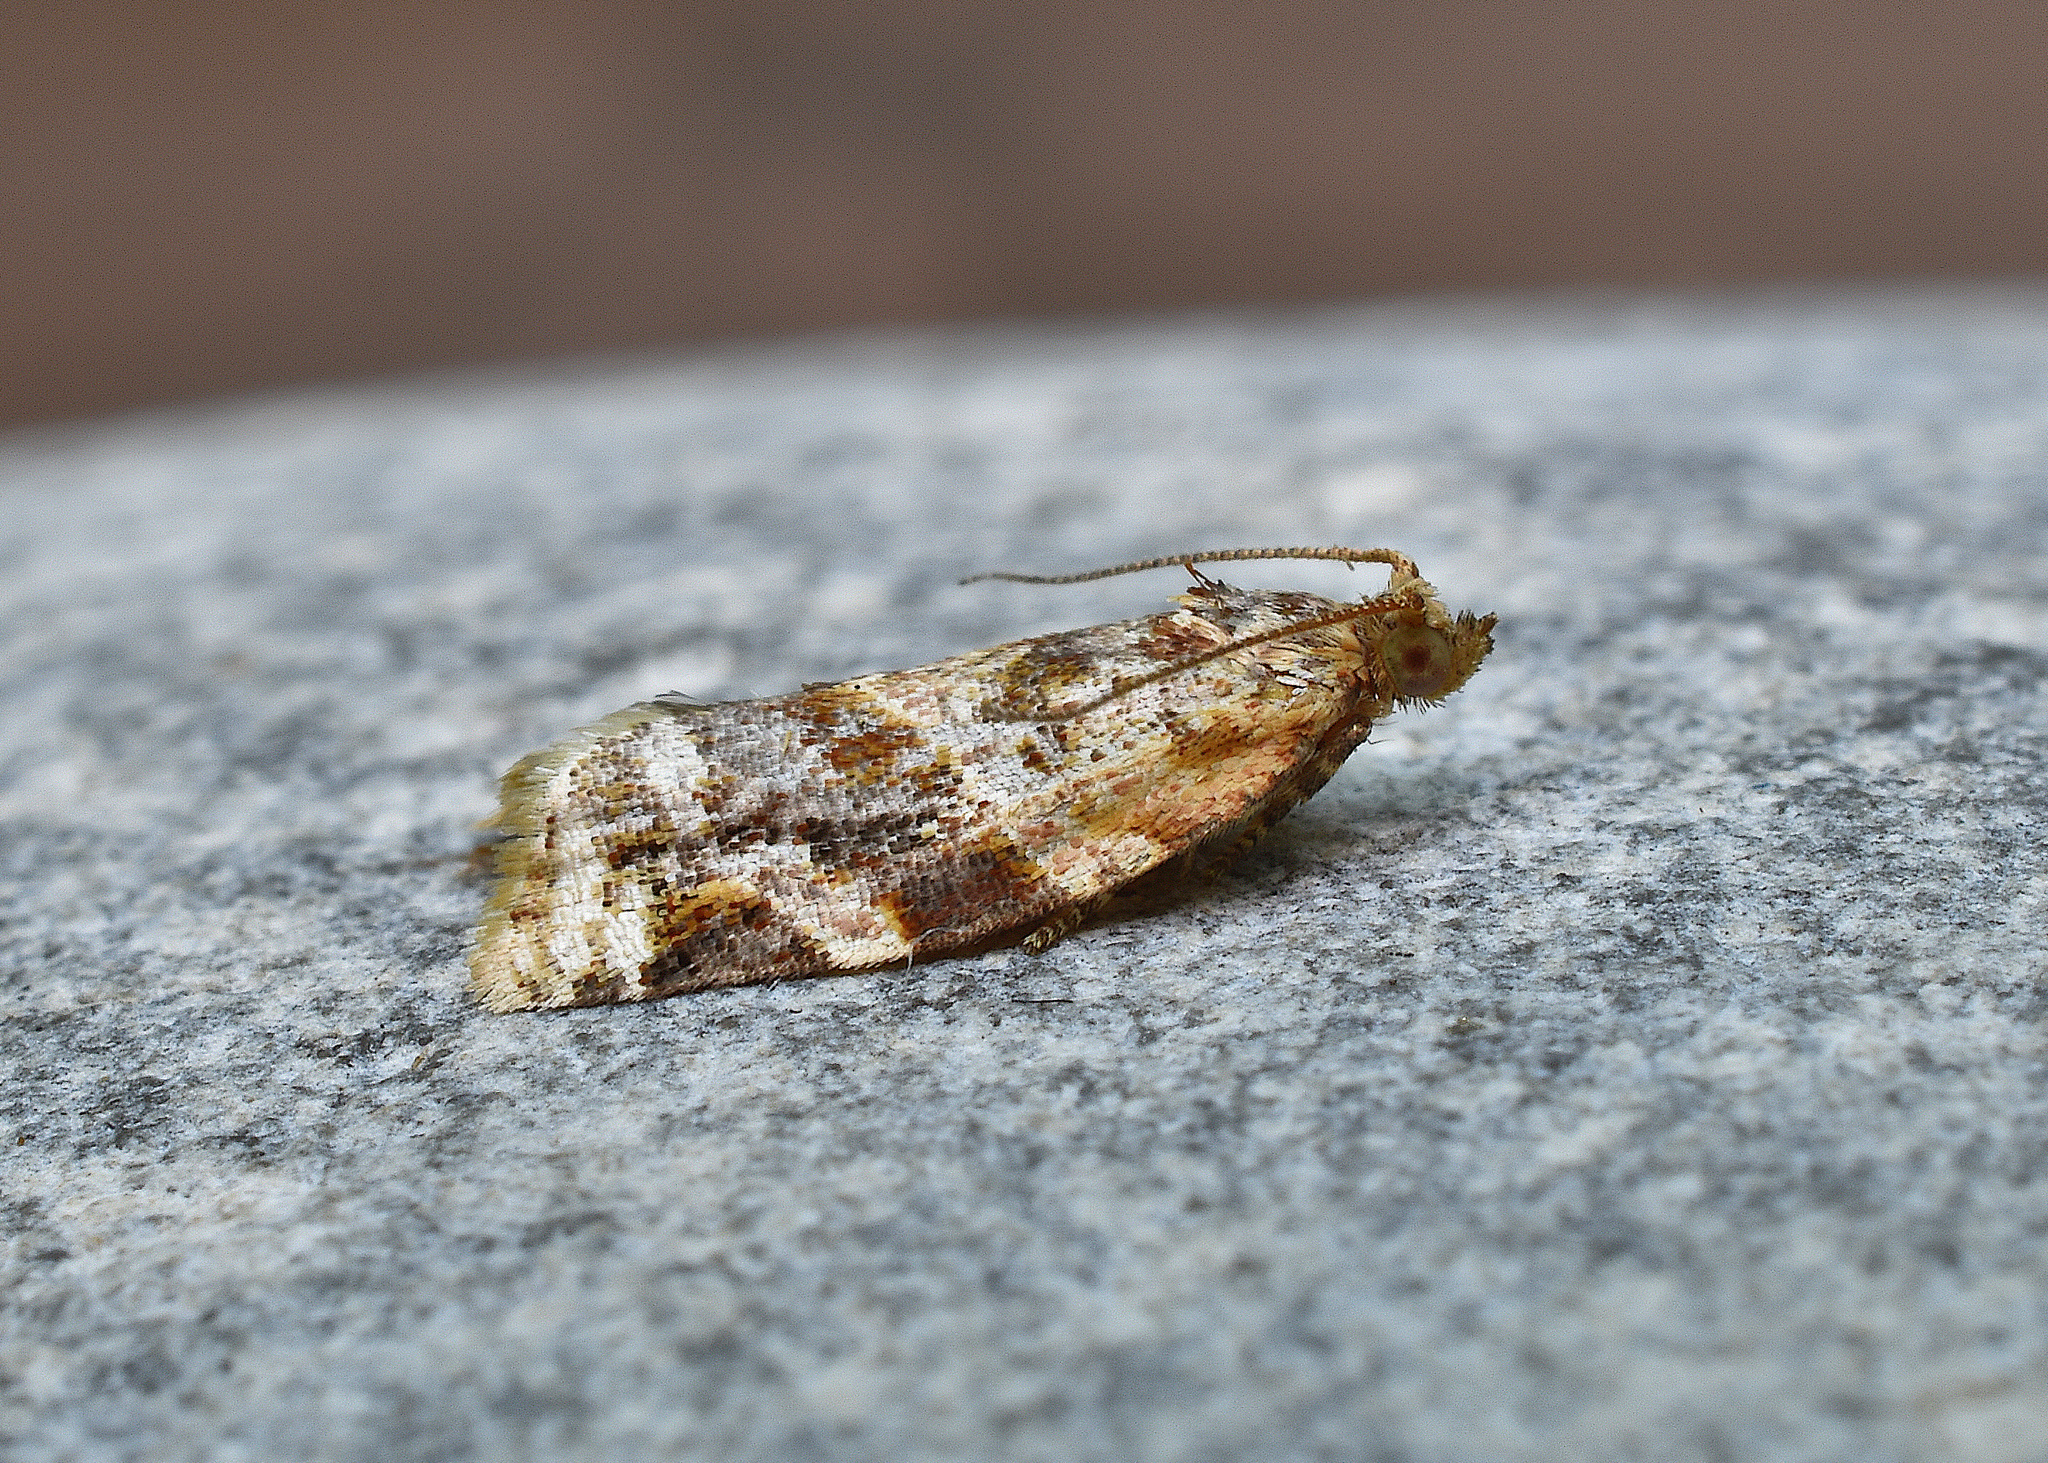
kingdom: Animalia
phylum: Arthropoda
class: Insecta
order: Lepidoptera
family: Tortricidae
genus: Argyrotaenia
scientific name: Argyrotaenia velutinana
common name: Red-banded leafroller moth
